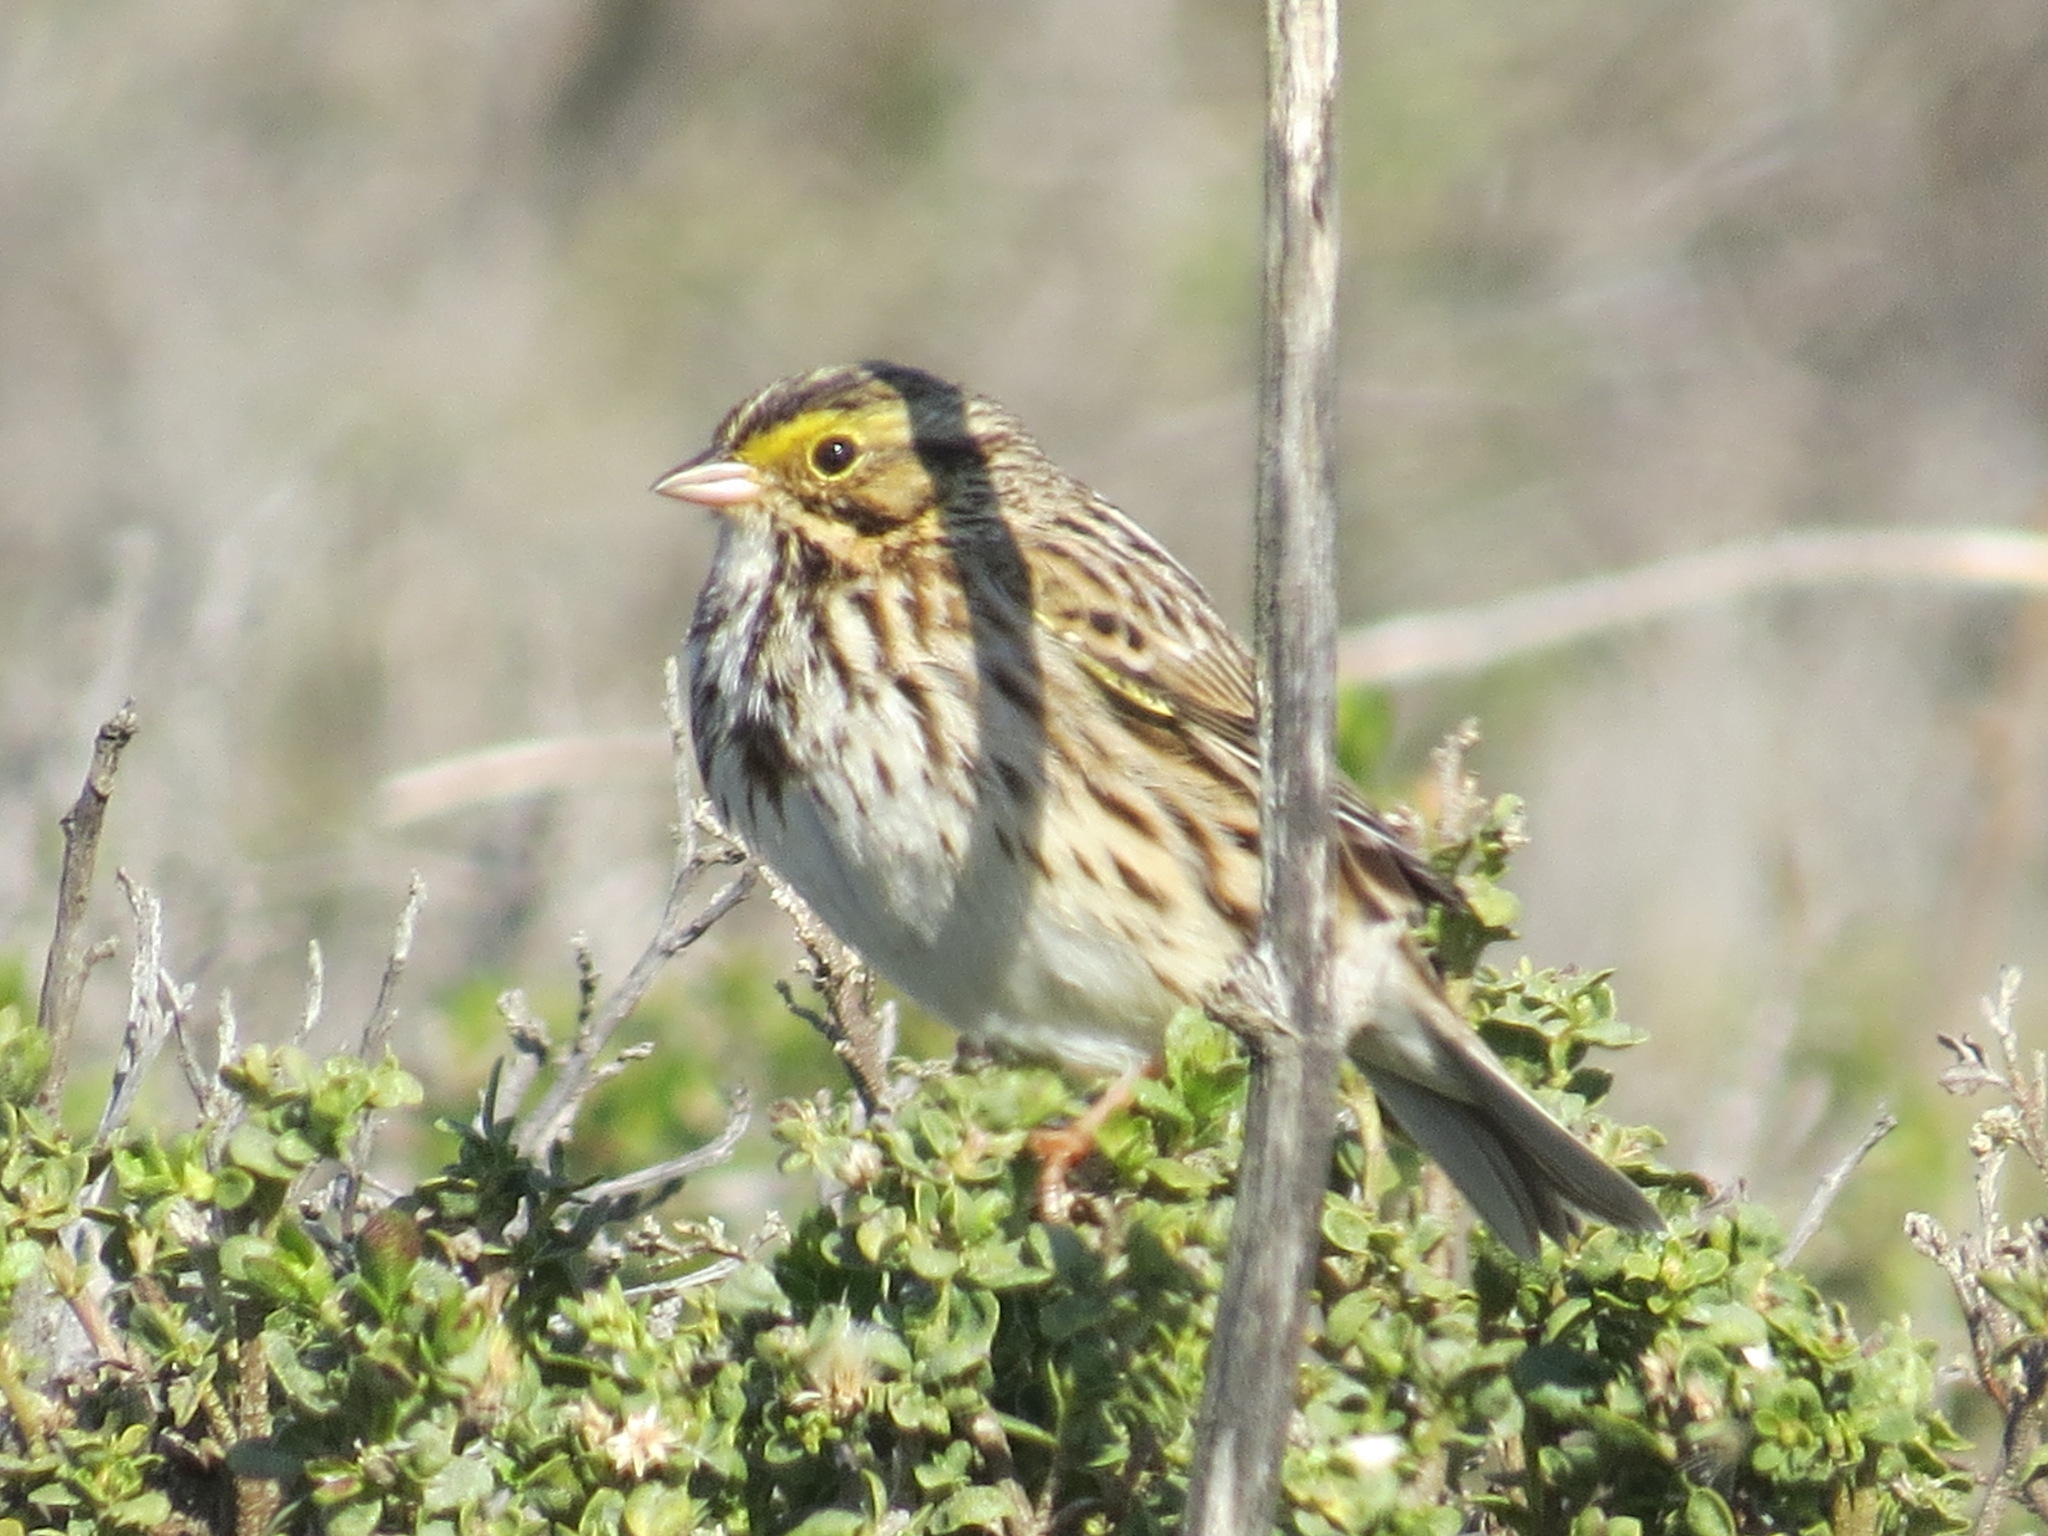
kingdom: Animalia
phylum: Chordata
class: Aves
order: Passeriformes
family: Passerellidae
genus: Passerculus
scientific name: Passerculus sandwichensis
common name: Savannah sparrow
